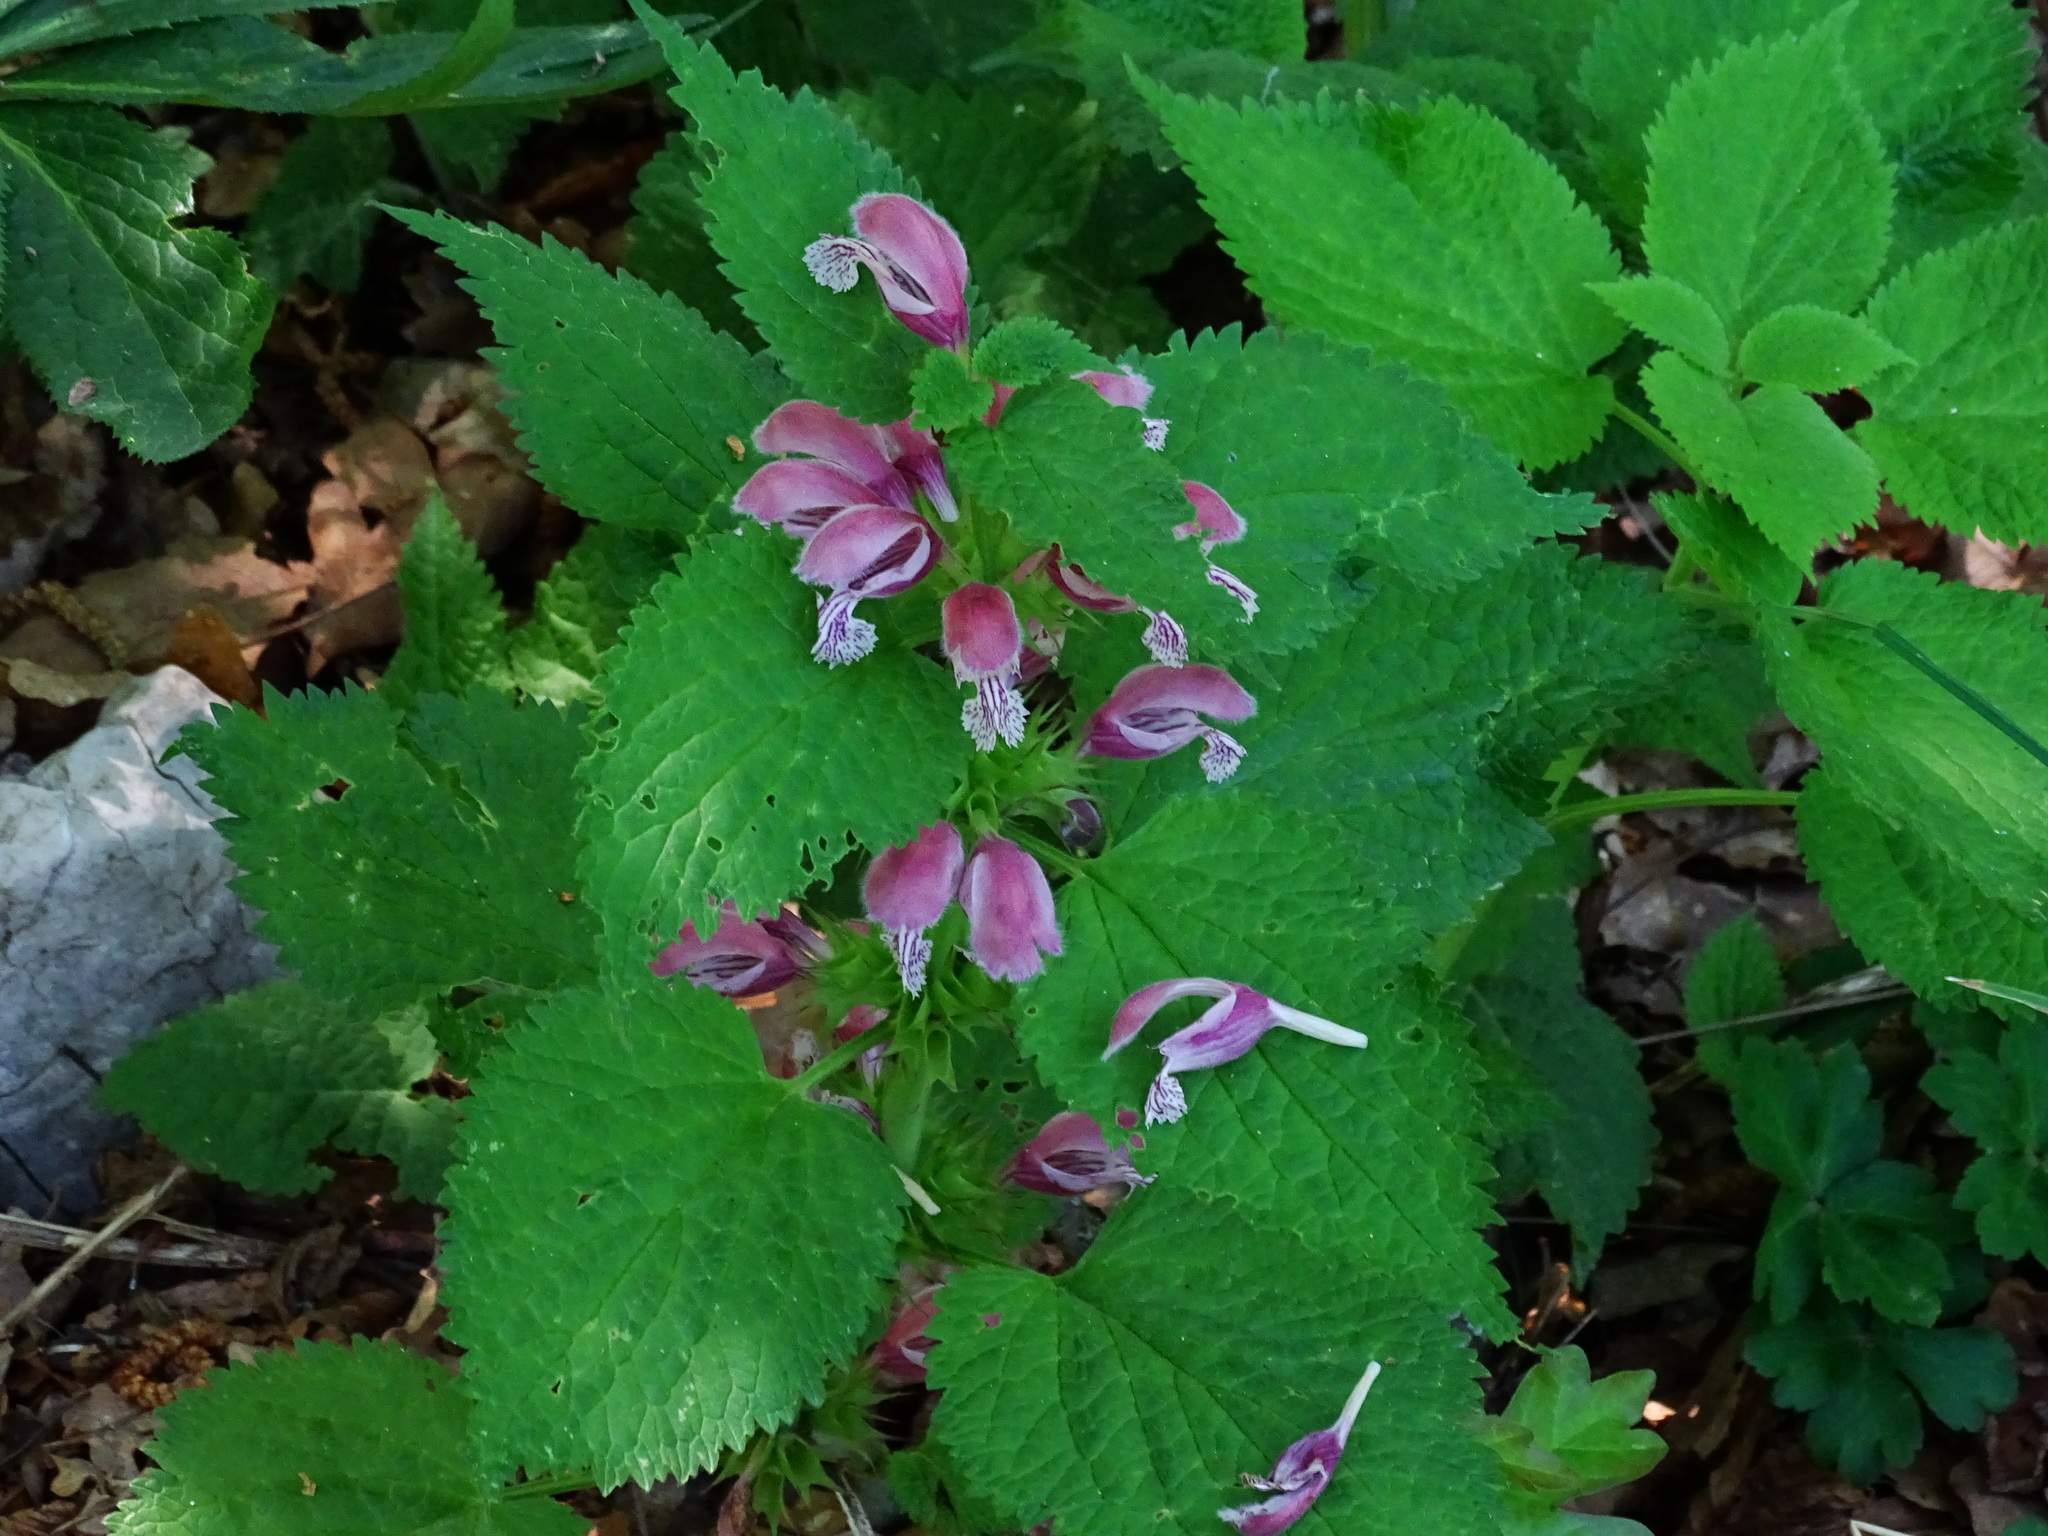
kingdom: Plantae
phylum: Tracheophyta
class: Magnoliopsida
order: Lamiales
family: Lamiaceae
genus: Lamium
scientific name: Lamium orvala
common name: Balm-leaved archangel
